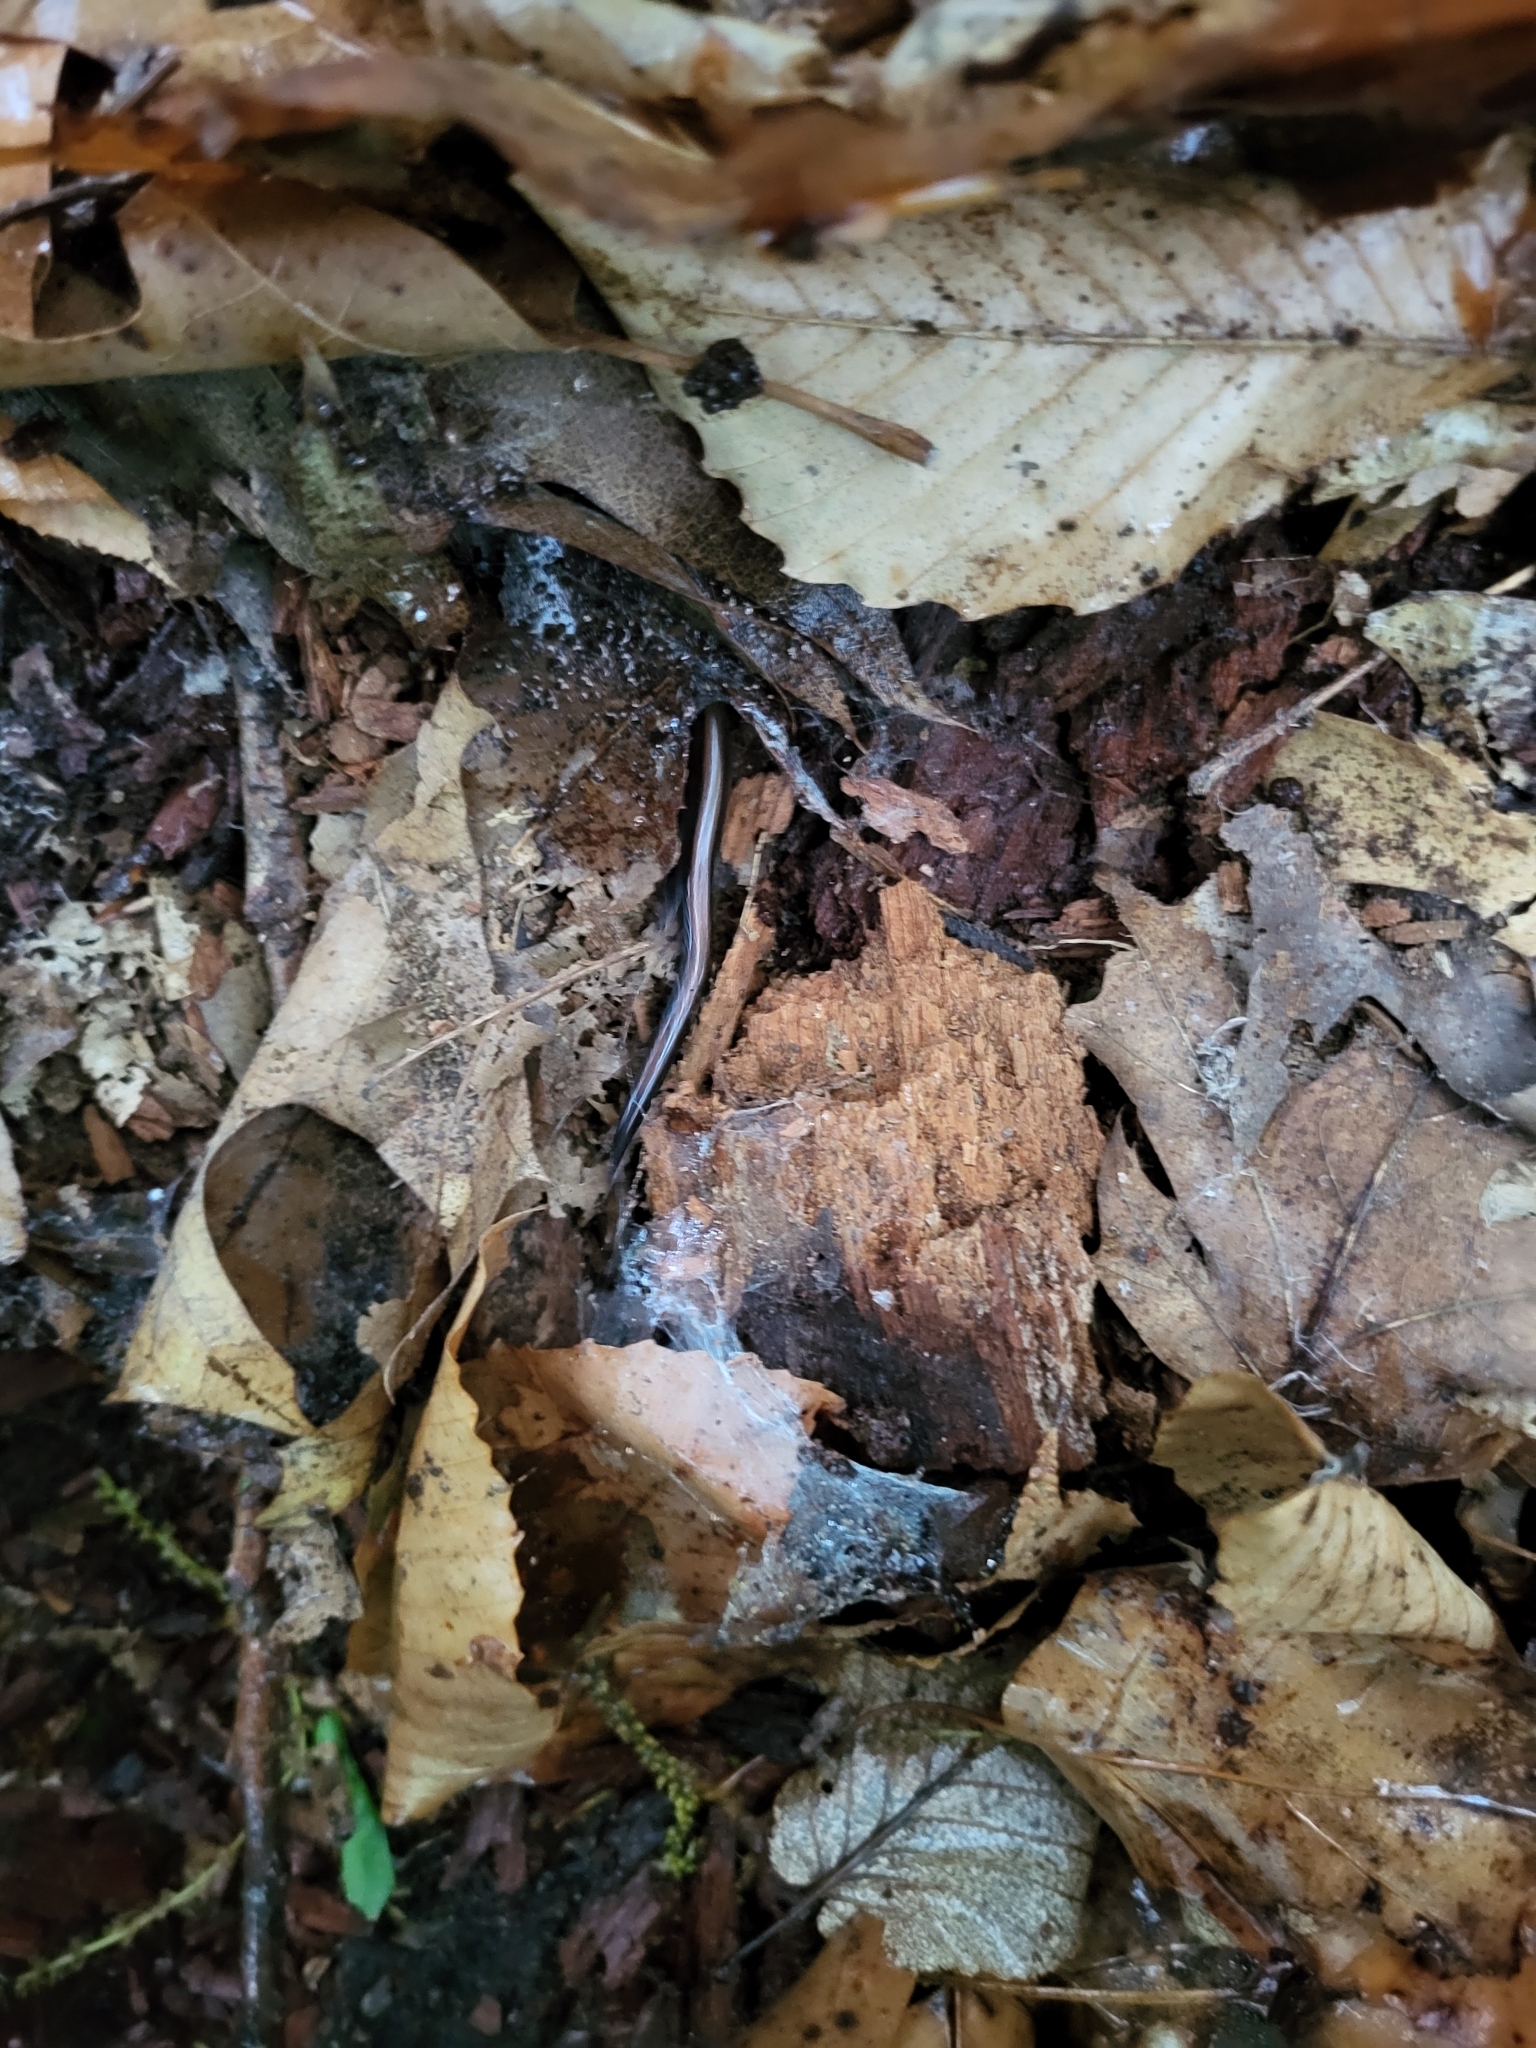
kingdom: Animalia
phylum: Chordata
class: Amphibia
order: Caudata
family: Plethodontidae
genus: Plethodon
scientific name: Plethodon cinereus
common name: Redback salamander
